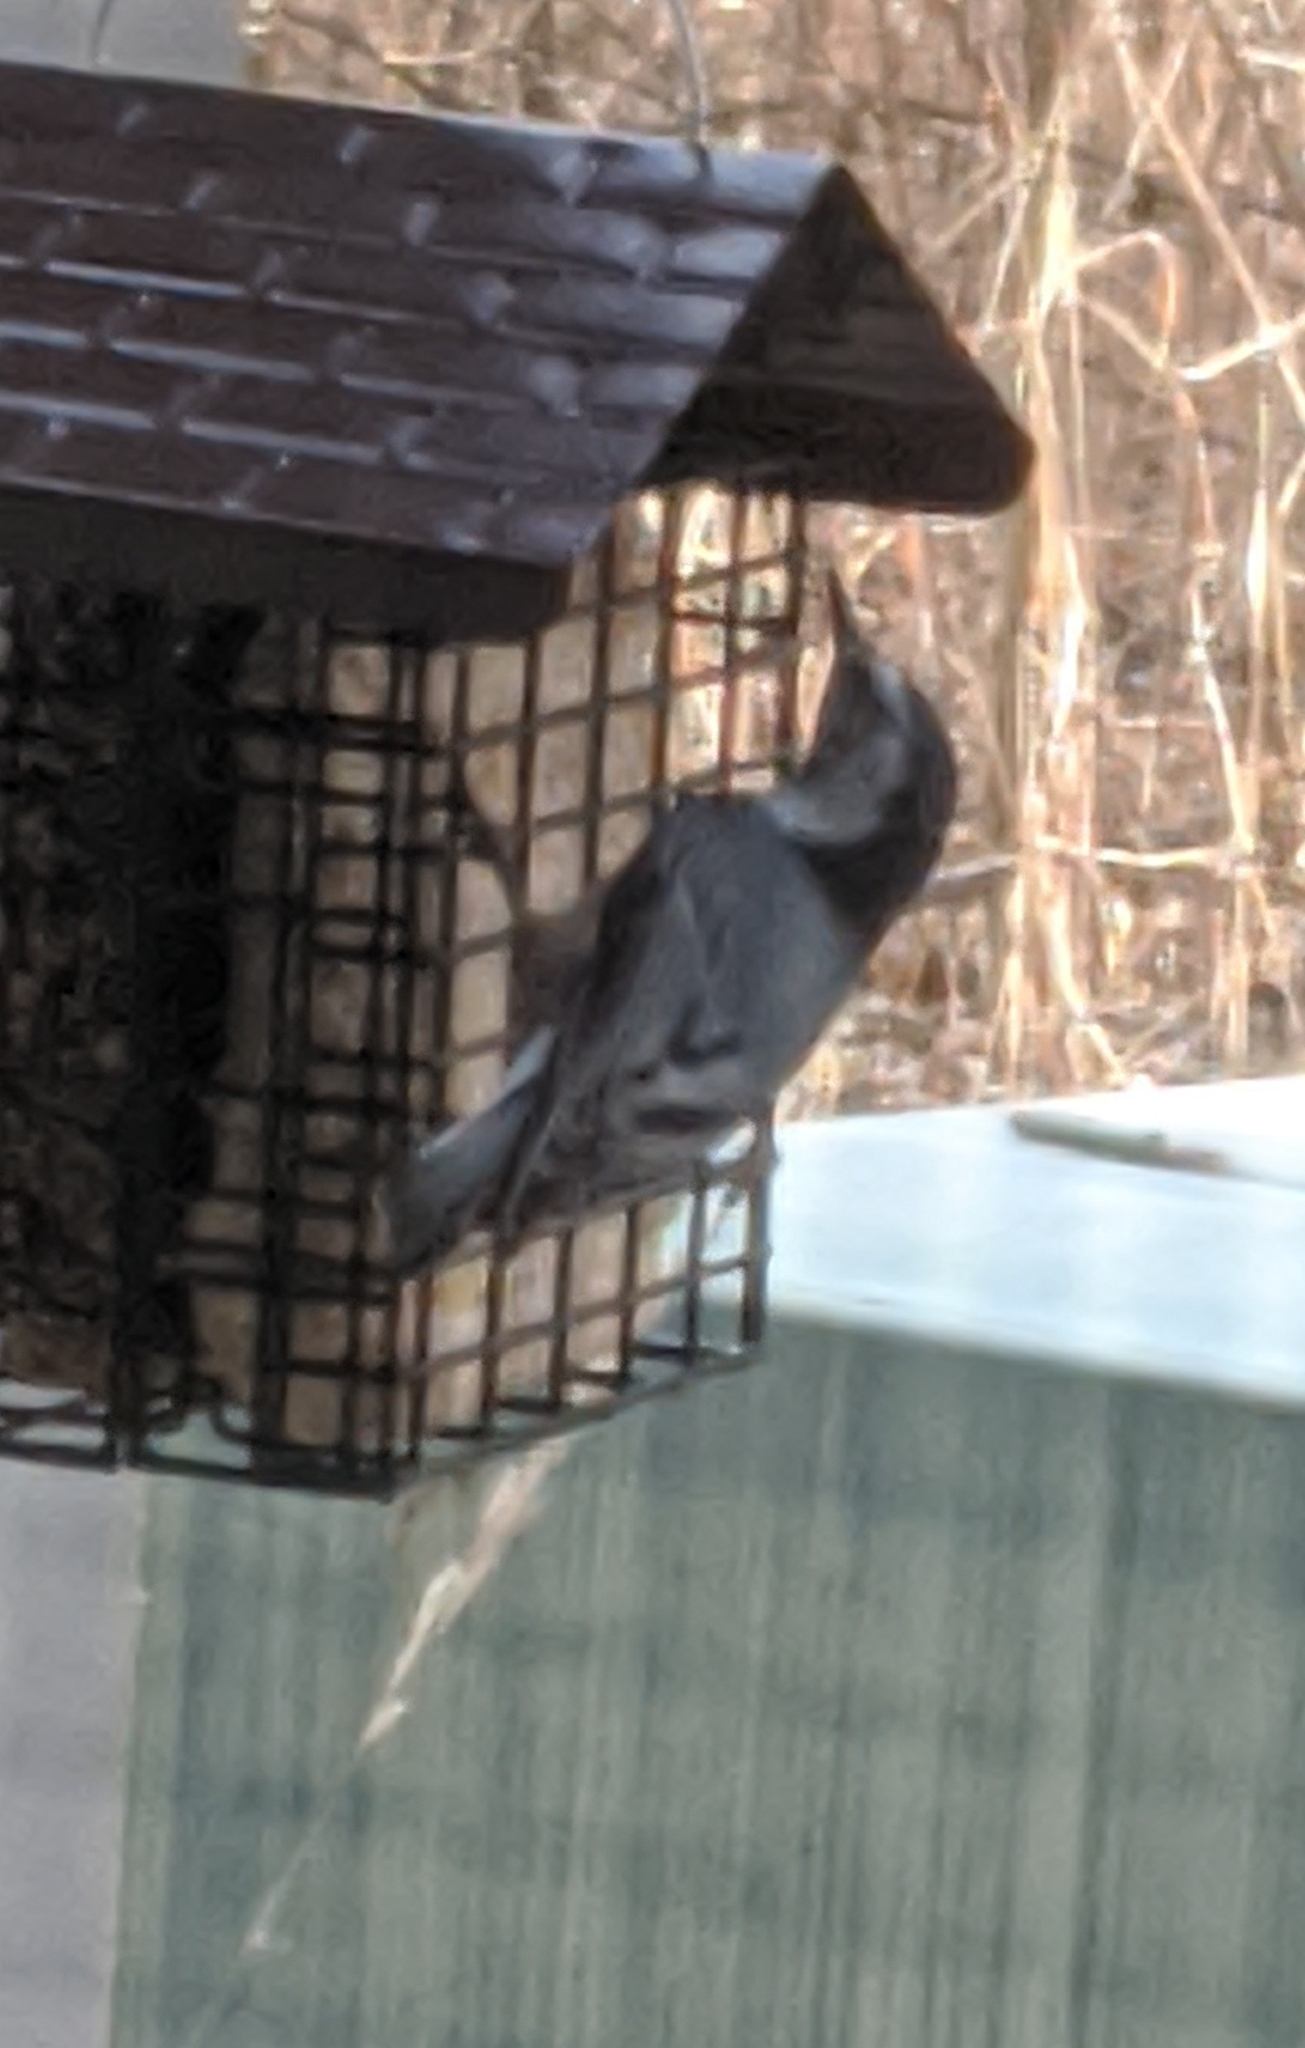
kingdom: Animalia
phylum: Chordata
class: Aves
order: Passeriformes
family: Sittidae
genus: Sitta
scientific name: Sitta carolinensis
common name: White-breasted nuthatch
